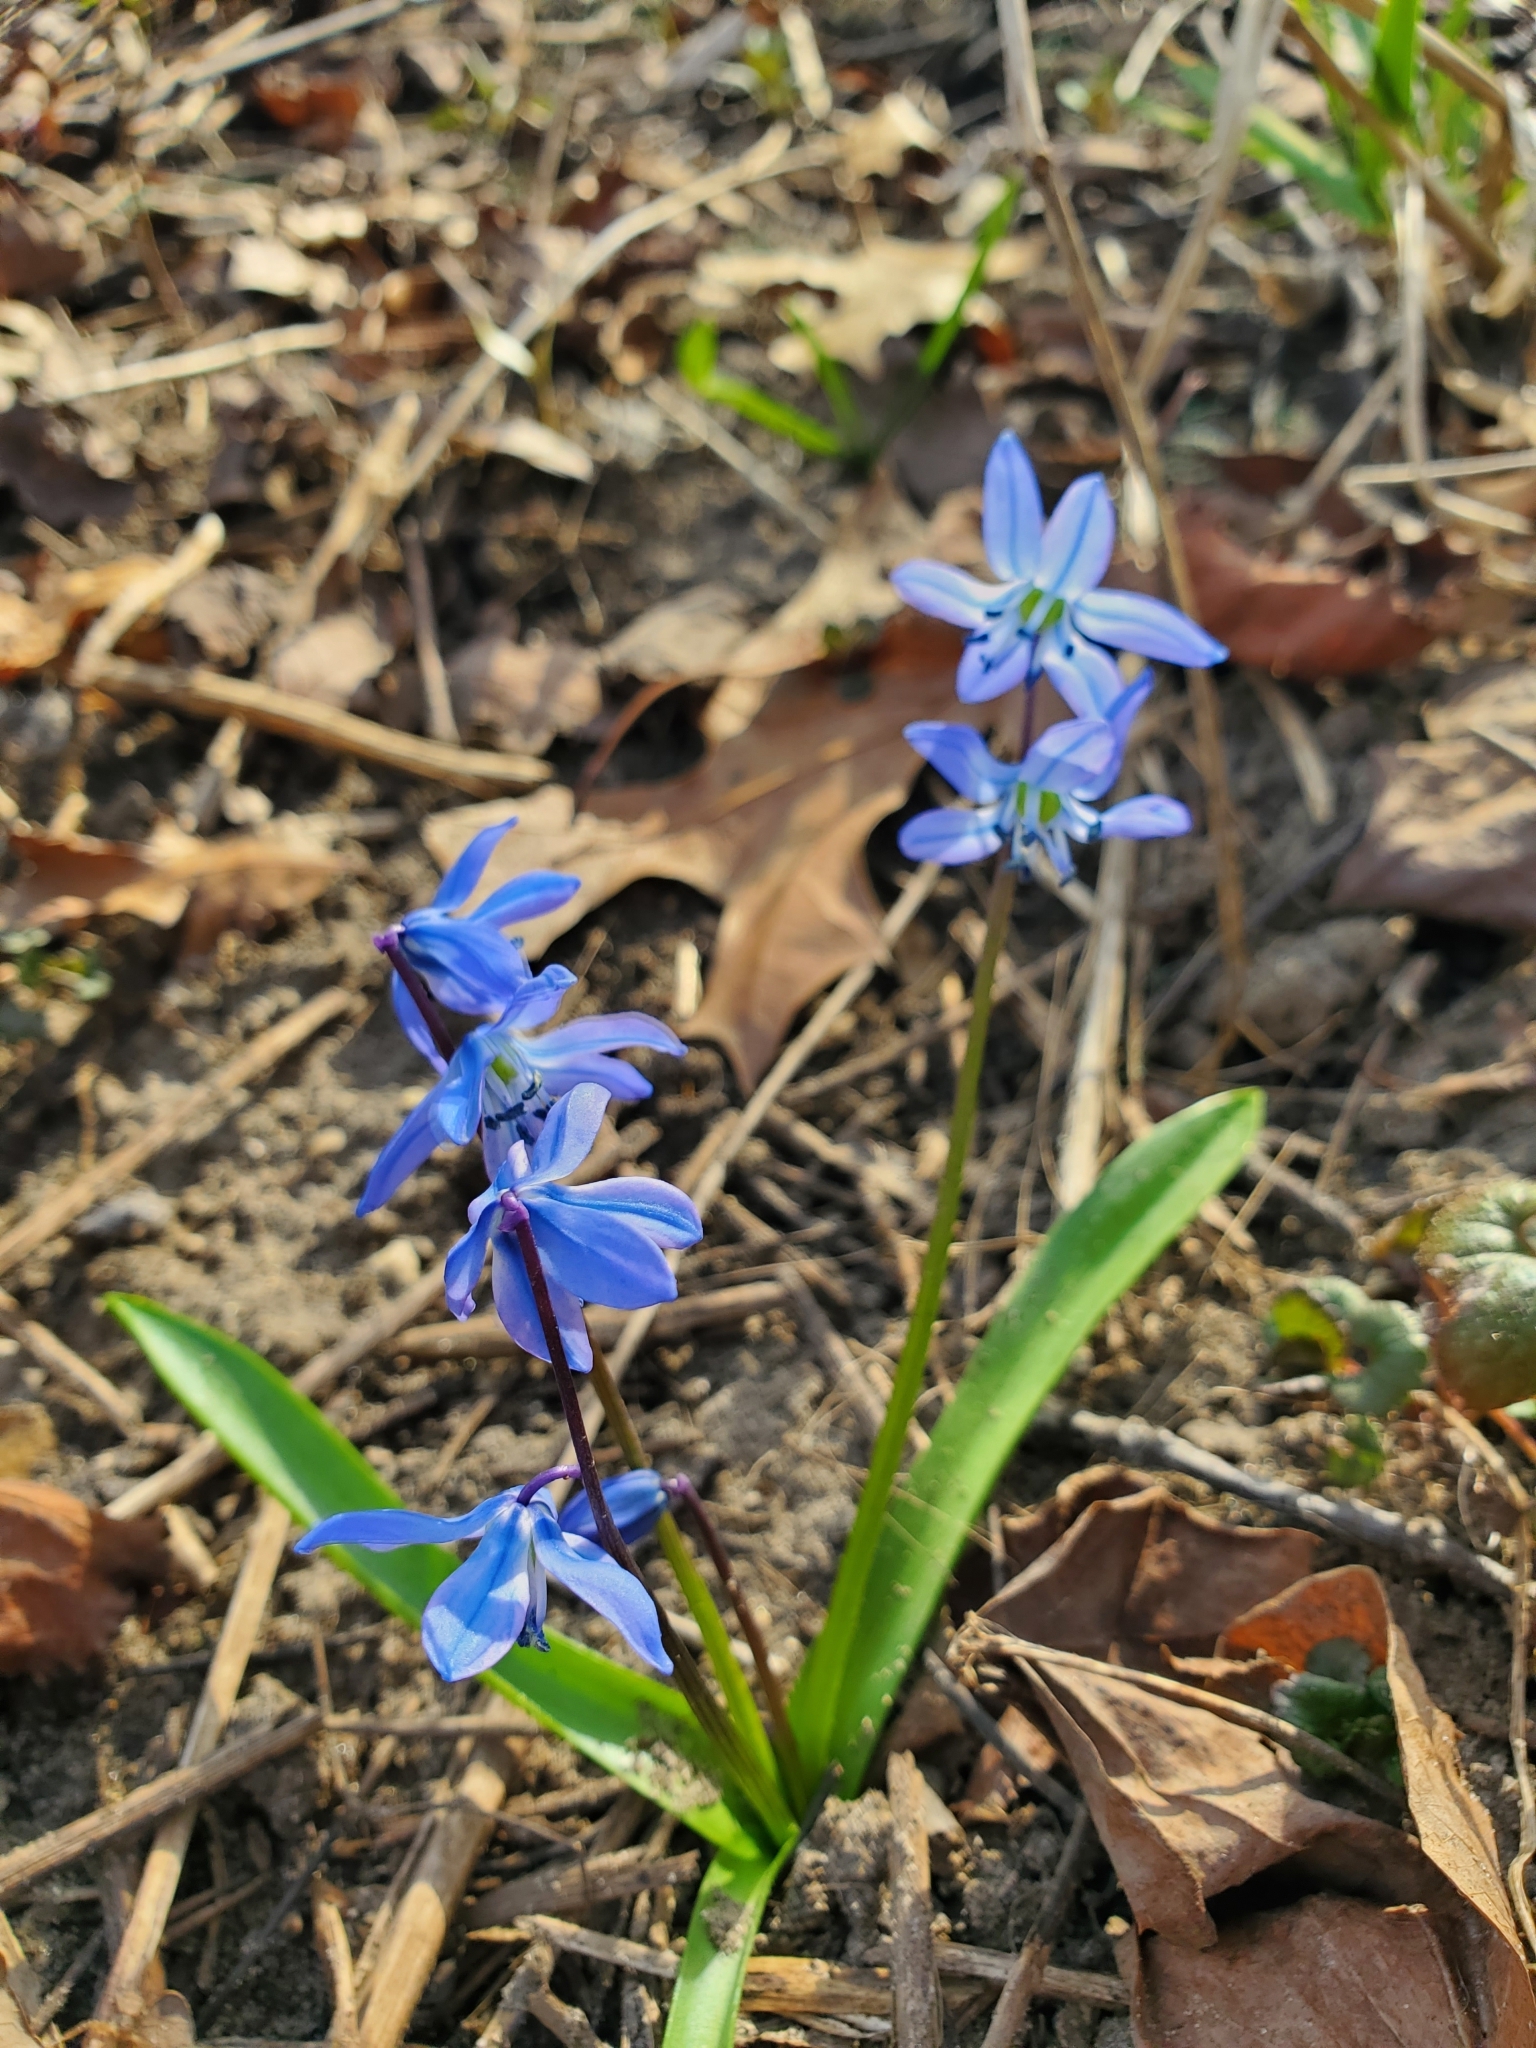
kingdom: Plantae
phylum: Tracheophyta
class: Liliopsida
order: Asparagales
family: Asparagaceae
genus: Scilla
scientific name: Scilla siberica
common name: Siberian squill
